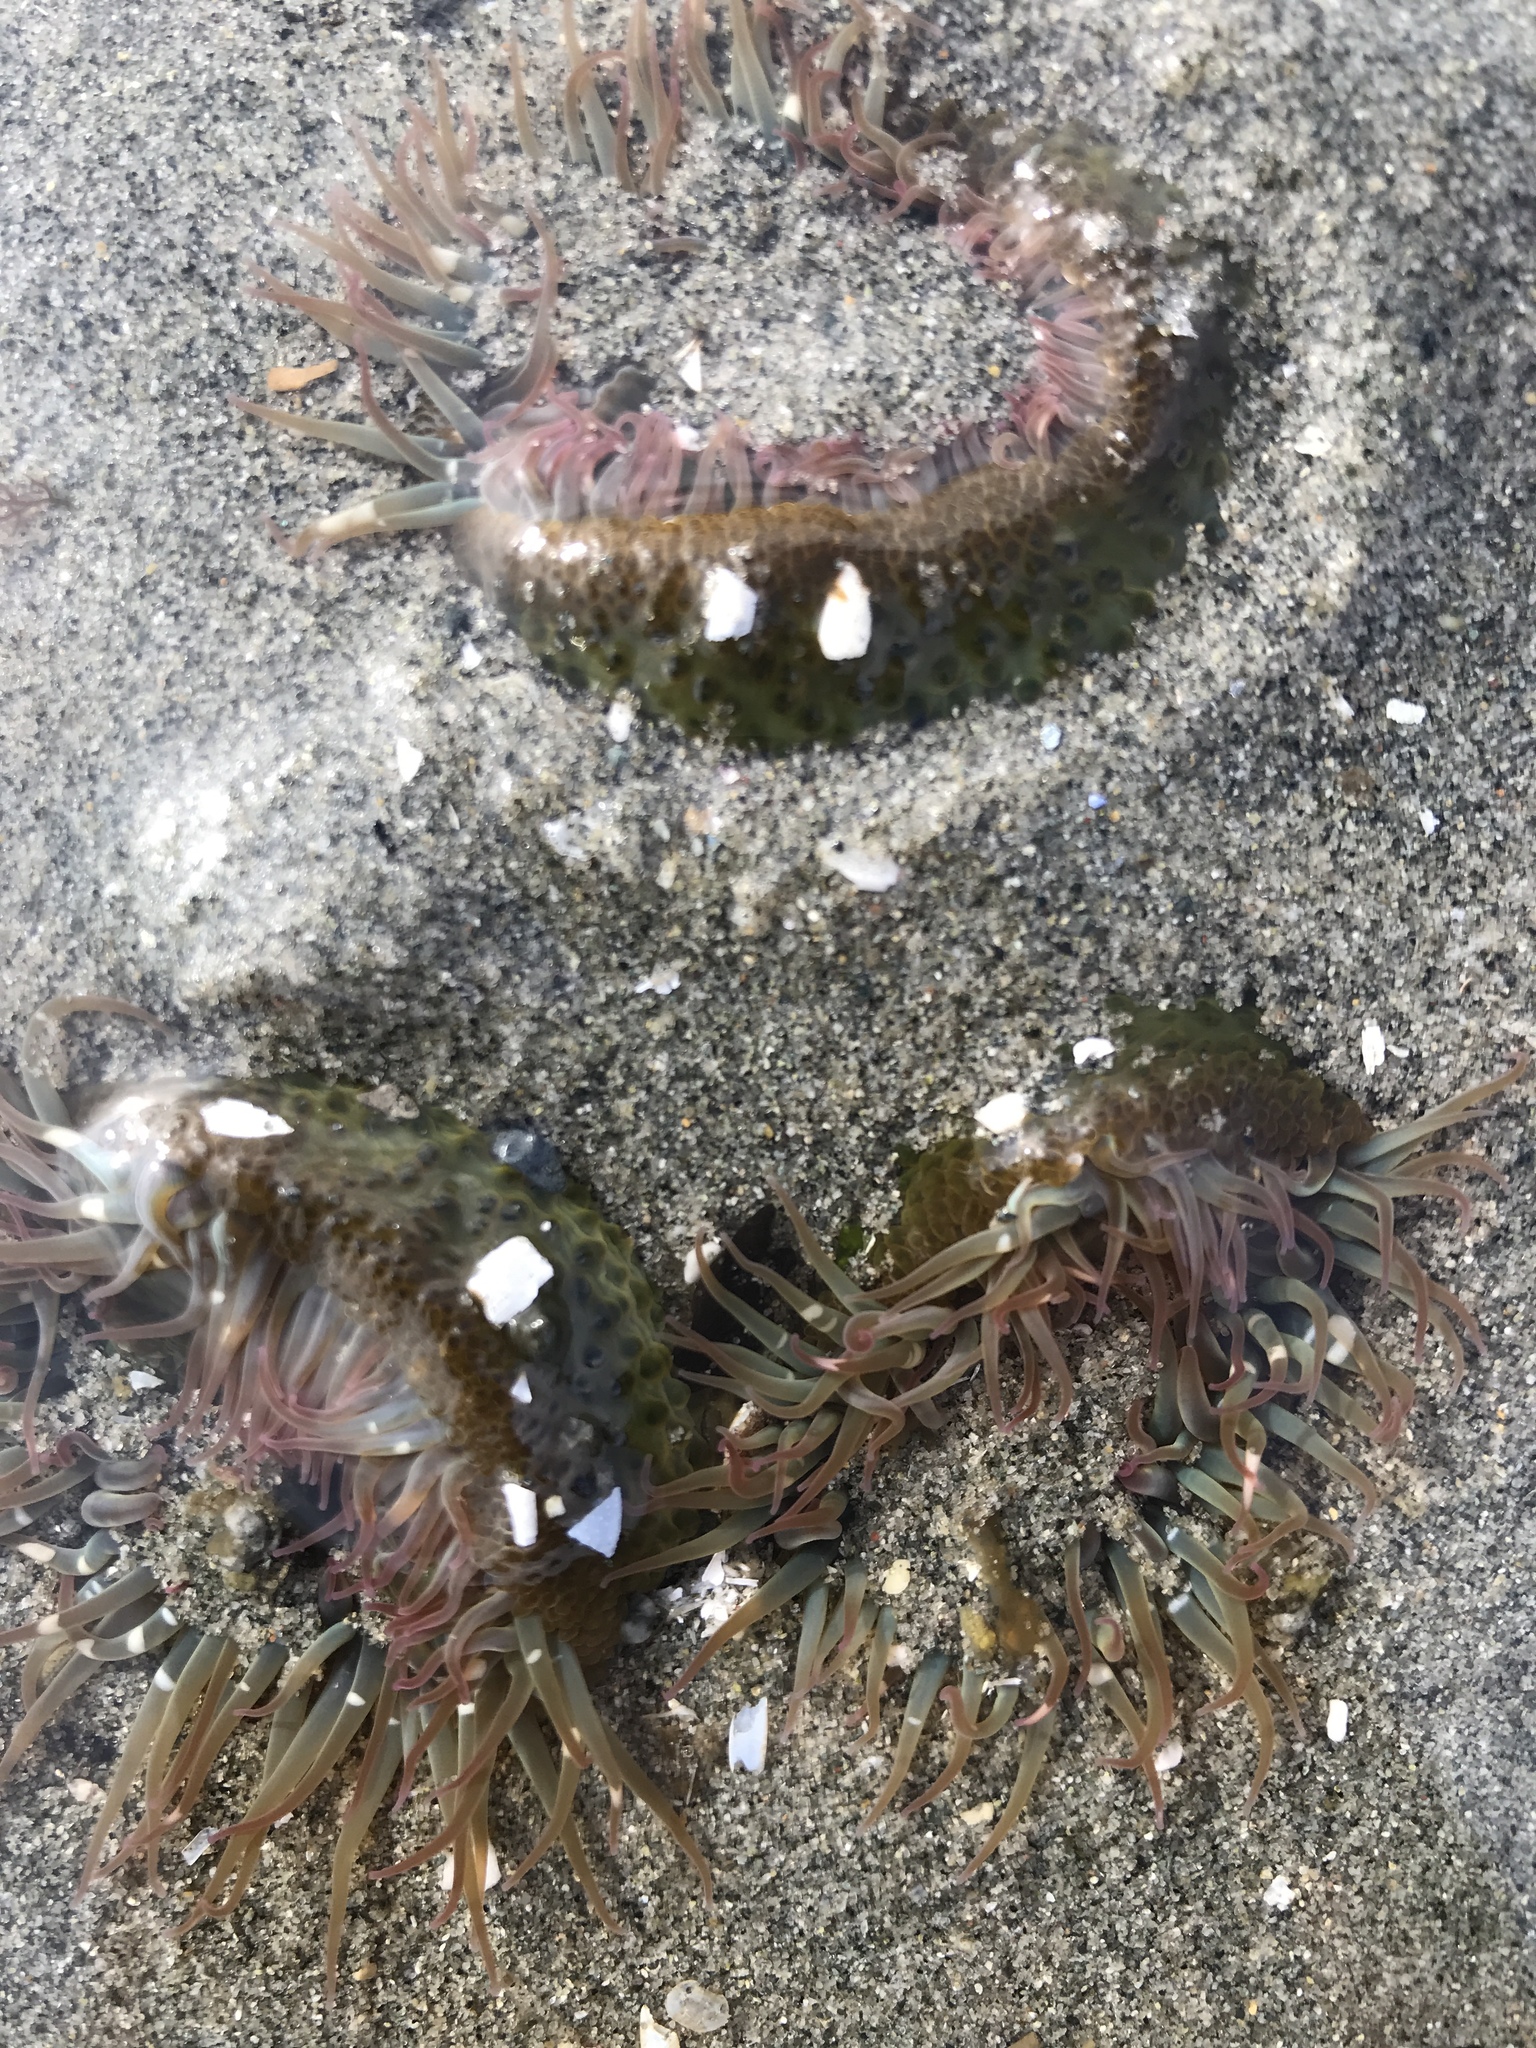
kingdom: Animalia
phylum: Cnidaria
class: Anthozoa
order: Actiniaria
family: Actiniidae
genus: Anthopleura
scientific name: Anthopleura elegantissima
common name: Clonal anemone
